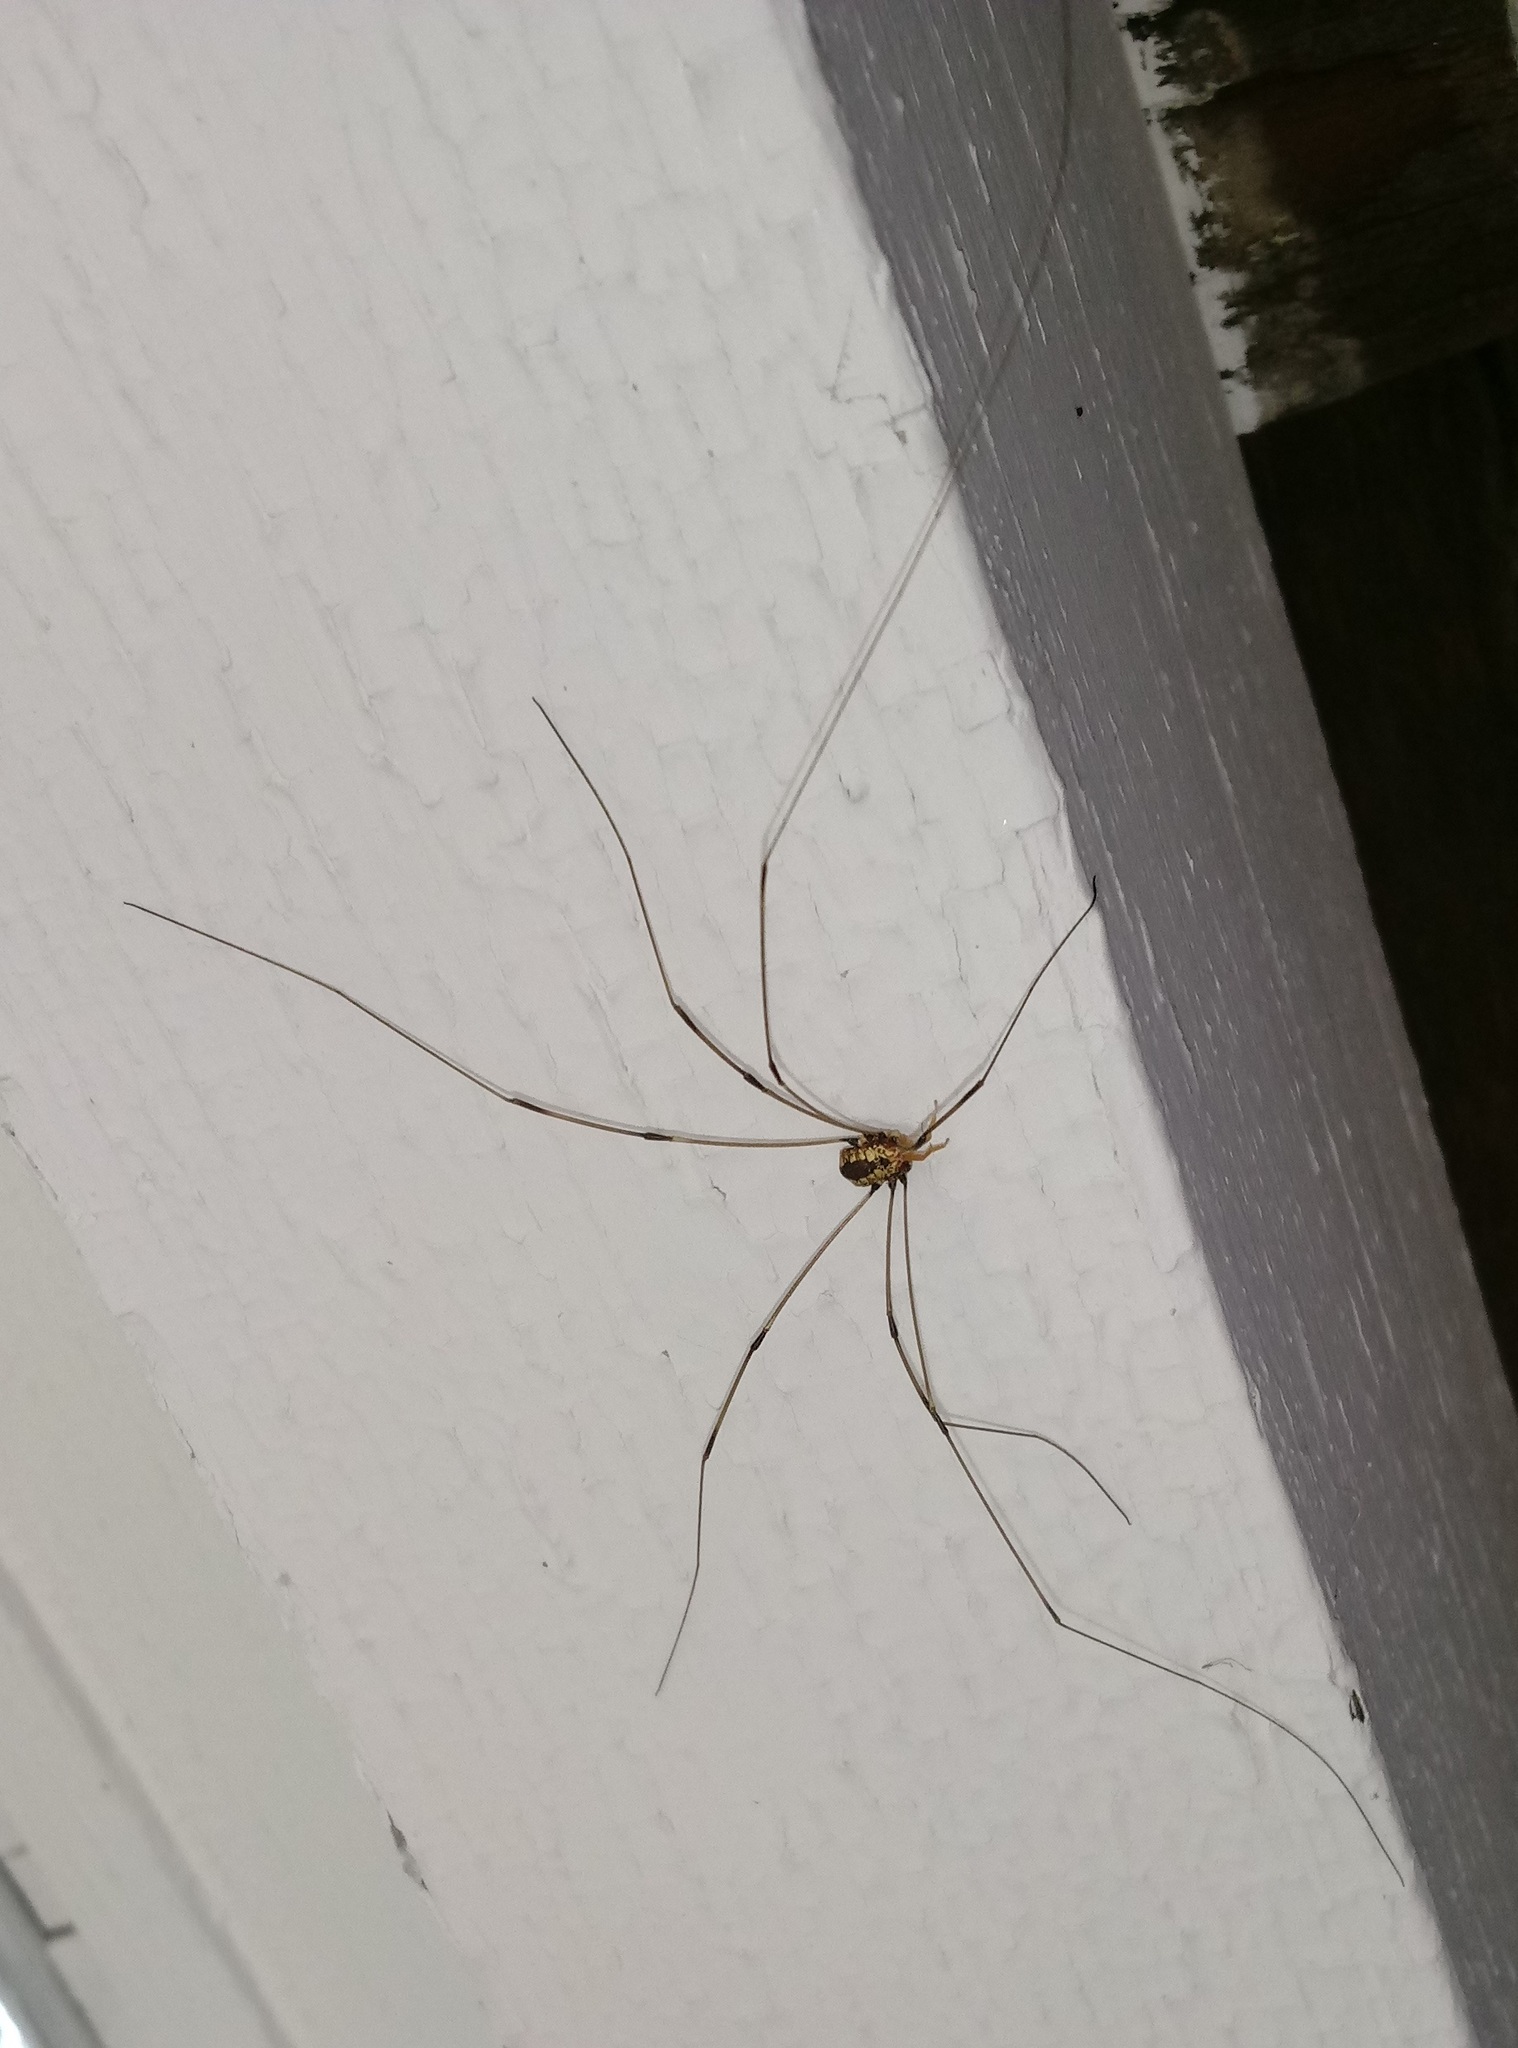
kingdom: Animalia
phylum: Arthropoda
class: Arachnida
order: Opiliones
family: Sclerosomatidae
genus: Leiobunum
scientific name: Leiobunum vittatum
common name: Eastern harvestman
